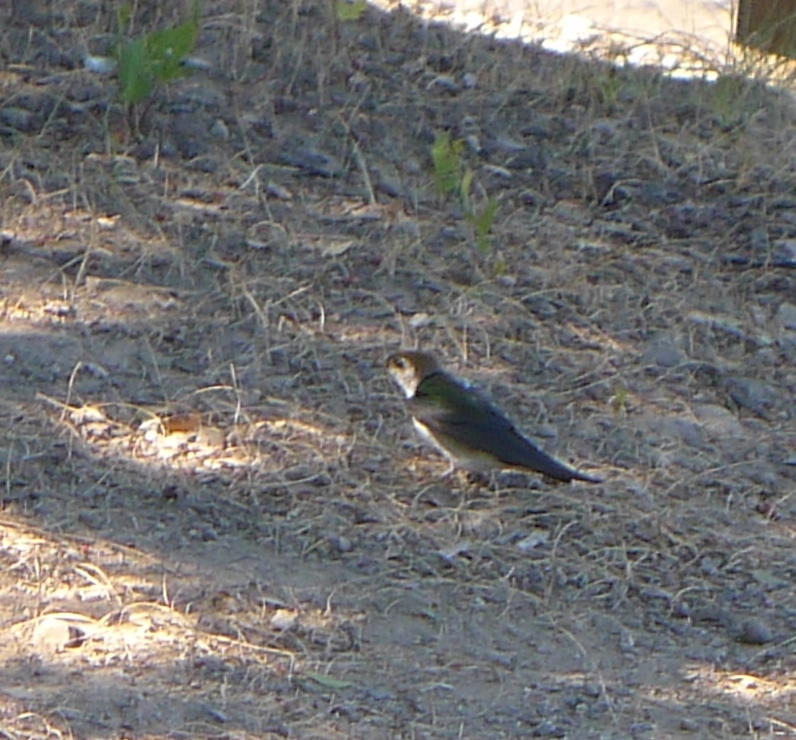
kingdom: Animalia
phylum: Chordata
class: Aves
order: Passeriformes
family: Hirundinidae
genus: Tachycineta
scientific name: Tachycineta thalassina
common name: Violet-green swallow
